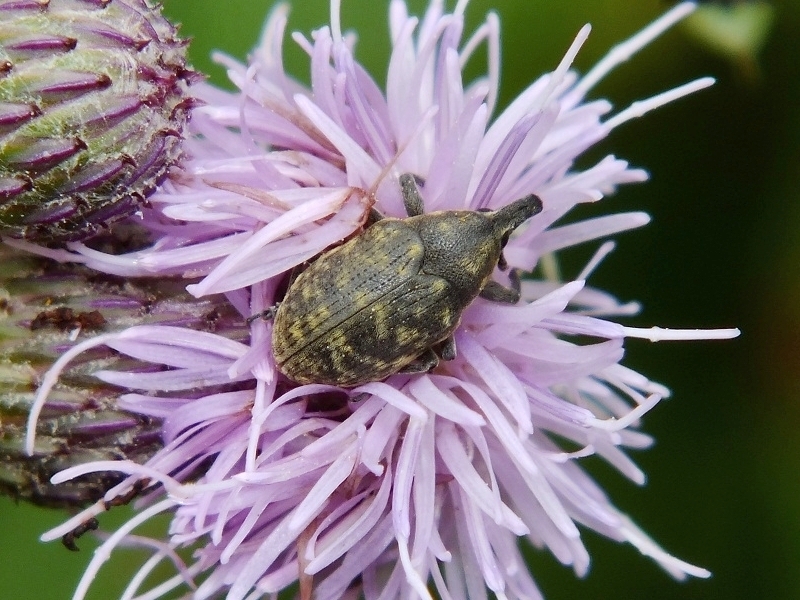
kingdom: Animalia
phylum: Arthropoda
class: Insecta
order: Coleoptera
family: Curculionidae
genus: Larinus
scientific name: Larinus turbinatus
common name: Weevil
